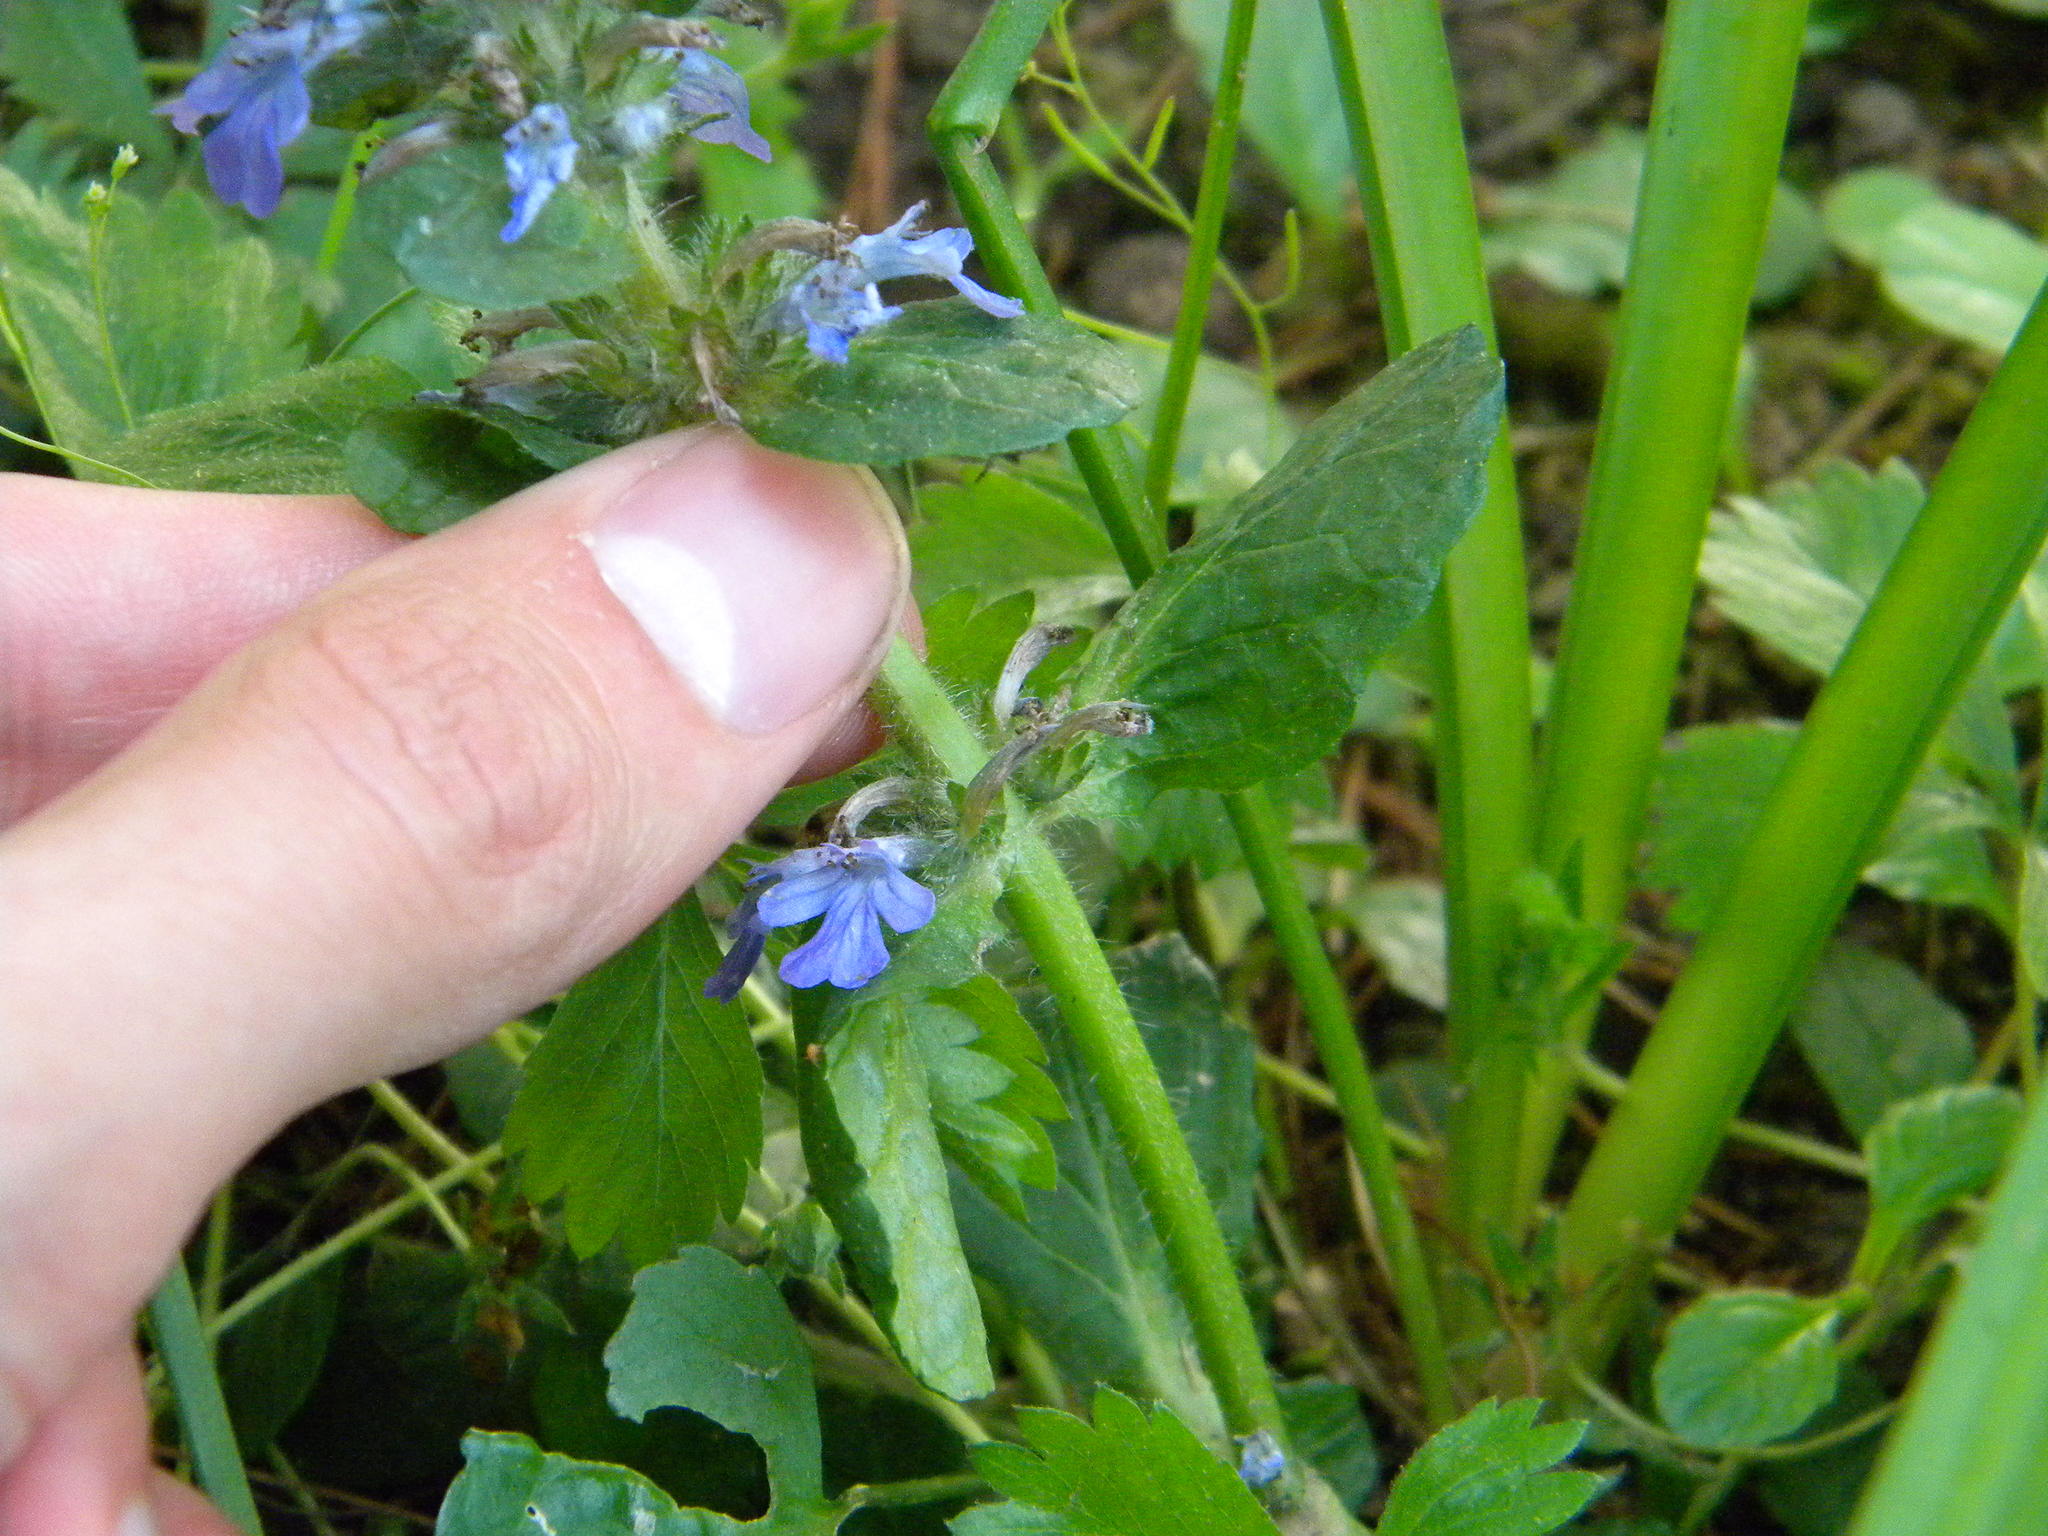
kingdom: Plantae
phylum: Tracheophyta
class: Magnoliopsida
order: Lamiales
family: Lamiaceae
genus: Ajuga
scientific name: Ajuga reptans
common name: Bugle
